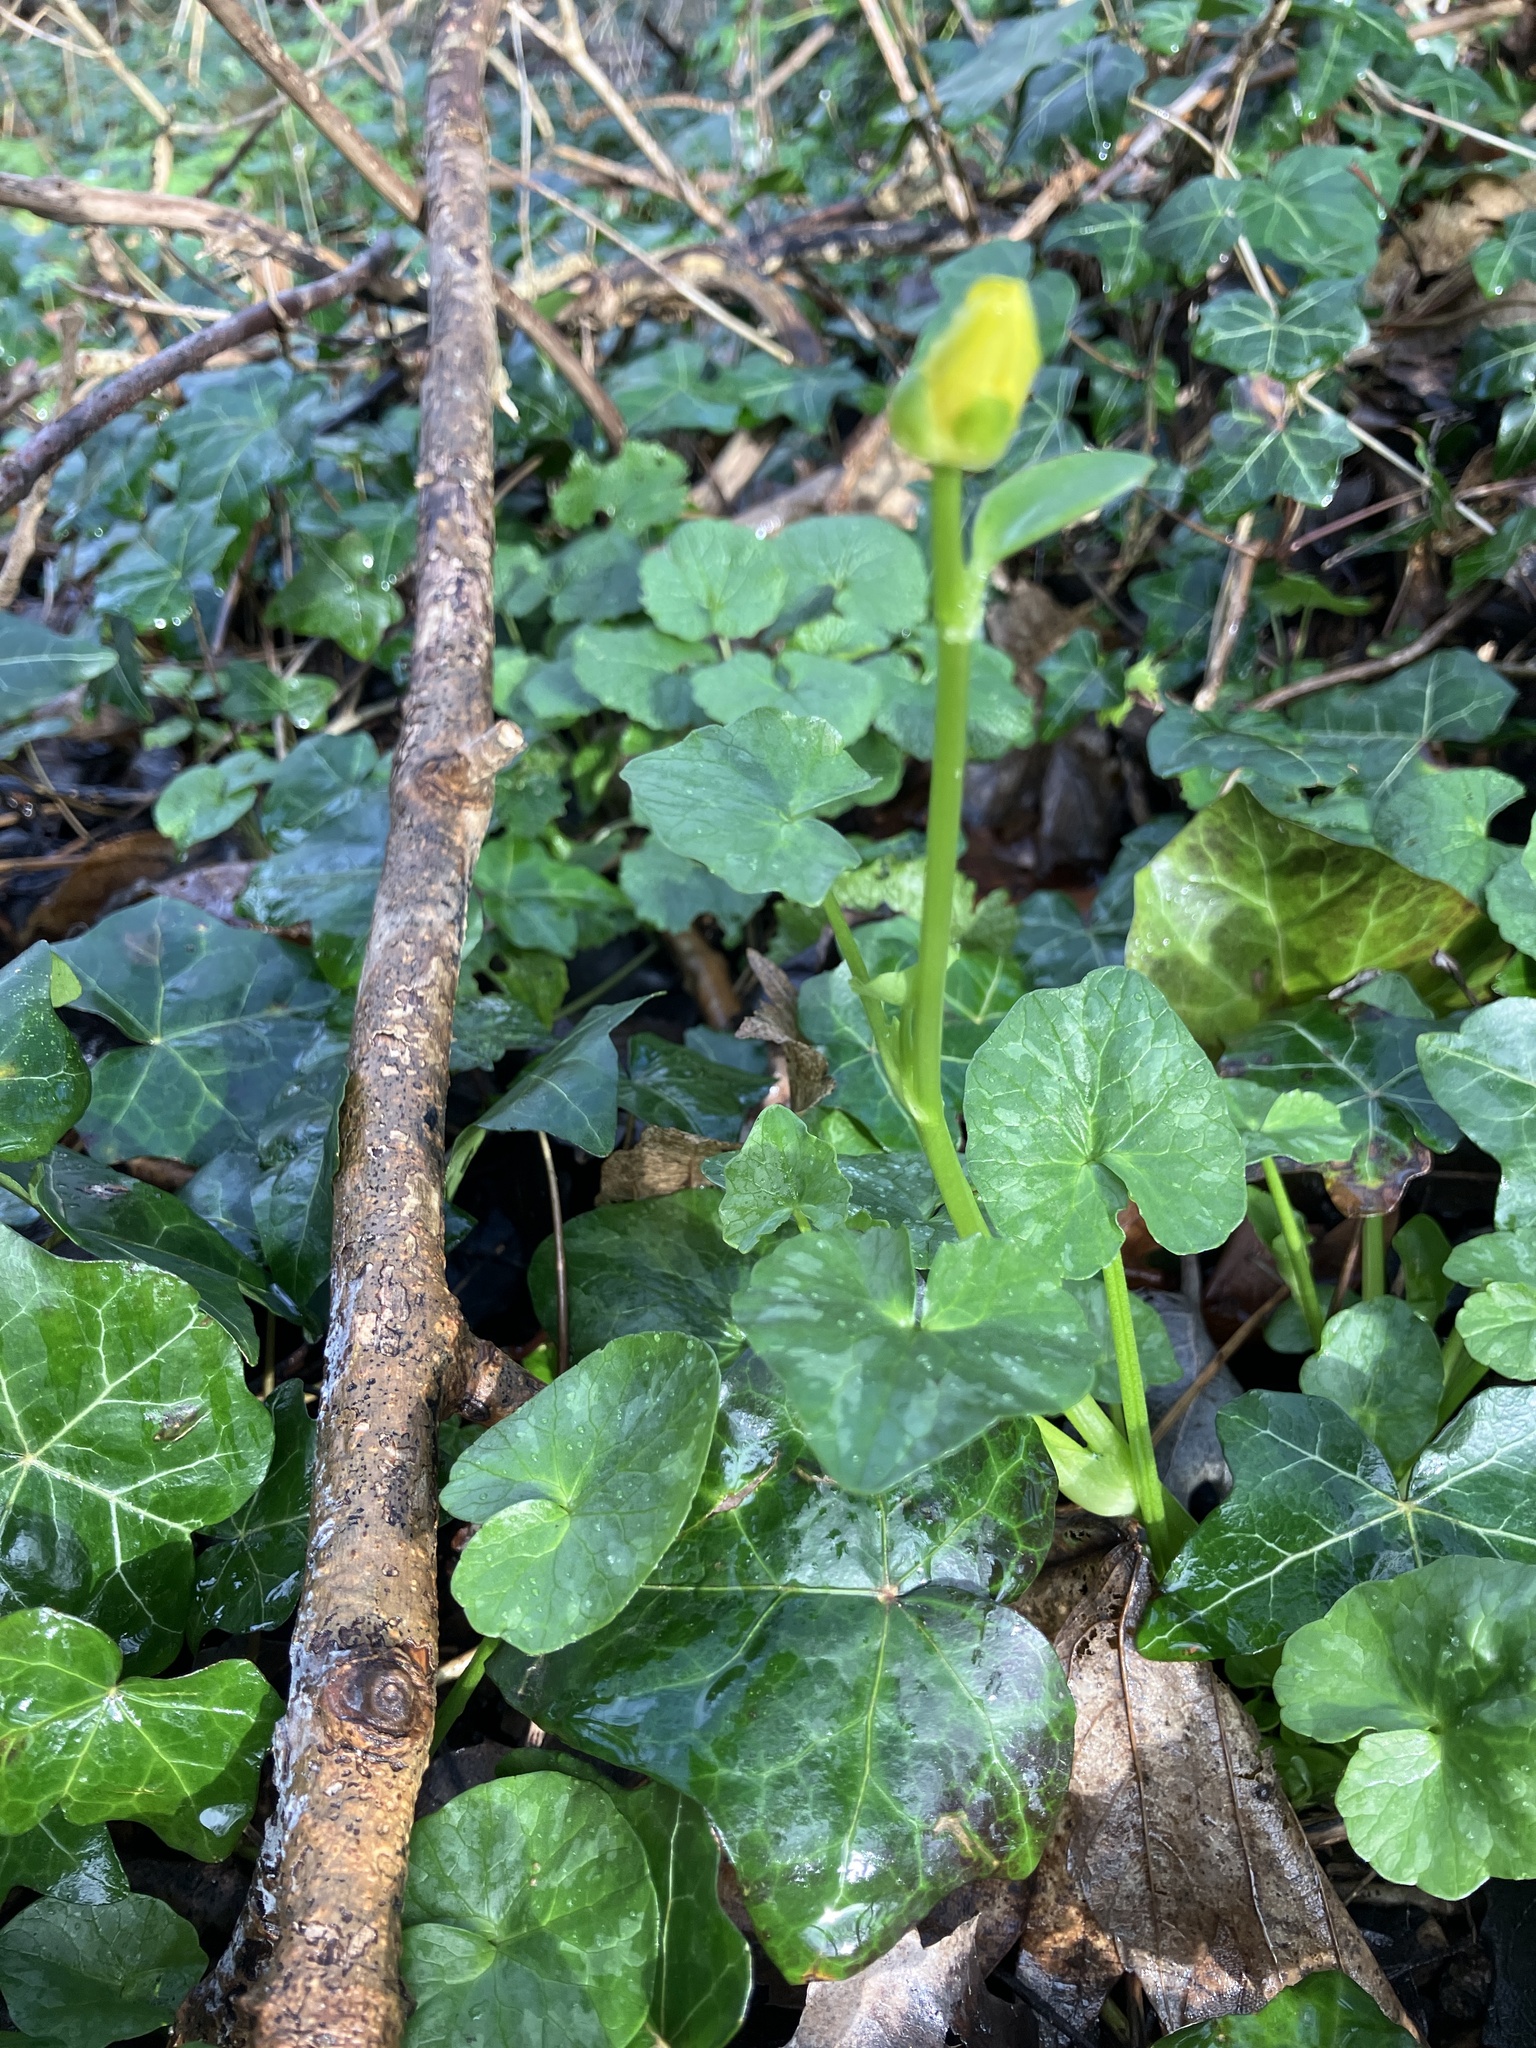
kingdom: Plantae
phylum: Tracheophyta
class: Magnoliopsida
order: Ranunculales
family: Ranunculaceae
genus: Ficaria
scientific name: Ficaria verna
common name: Lesser celandine
